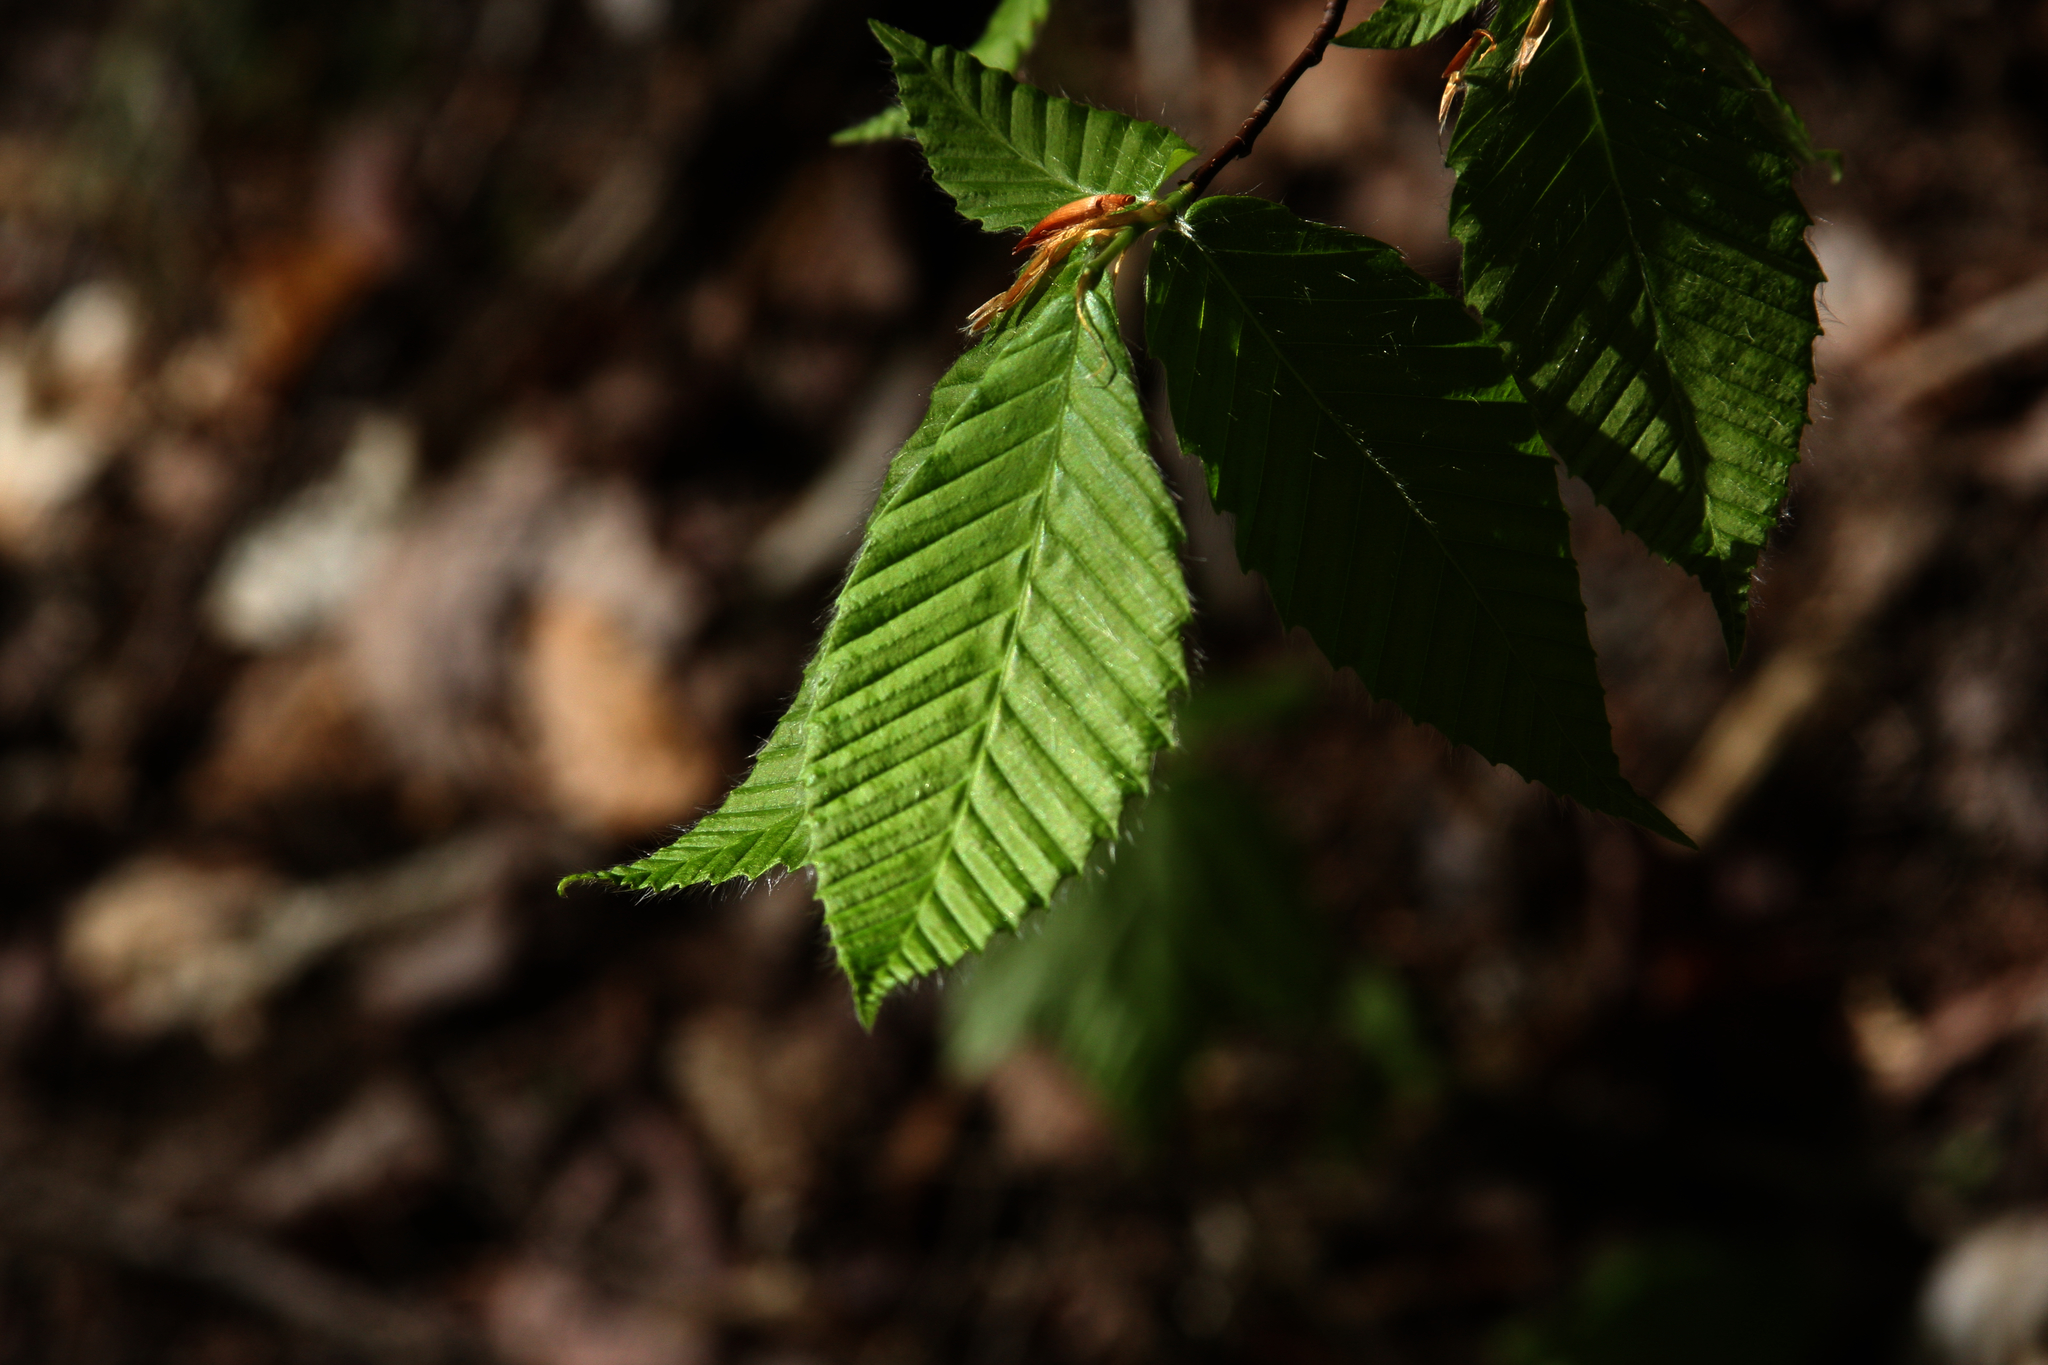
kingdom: Plantae
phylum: Tracheophyta
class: Magnoliopsida
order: Fagales
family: Fagaceae
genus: Fagus
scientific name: Fagus grandifolia
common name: American beech
